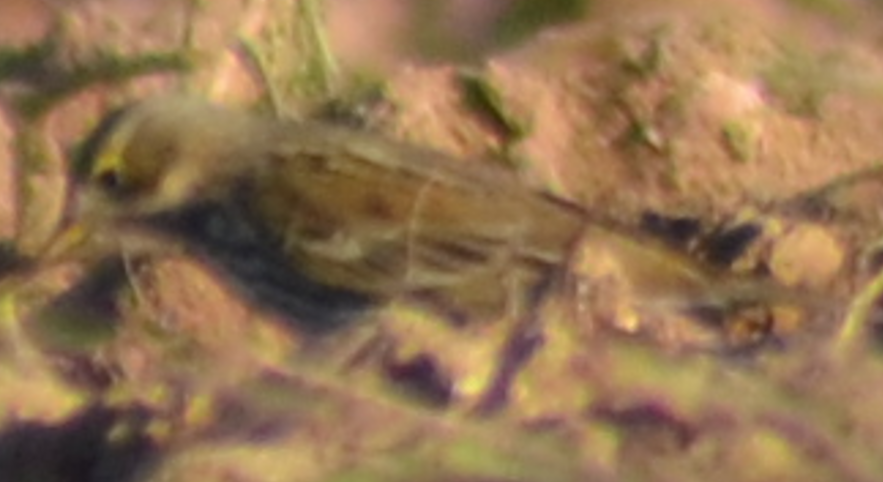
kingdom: Animalia
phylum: Chordata
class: Aves
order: Passeriformes
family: Motacillidae
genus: Anthus
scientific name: Anthus pratensis
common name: Meadow pipit
